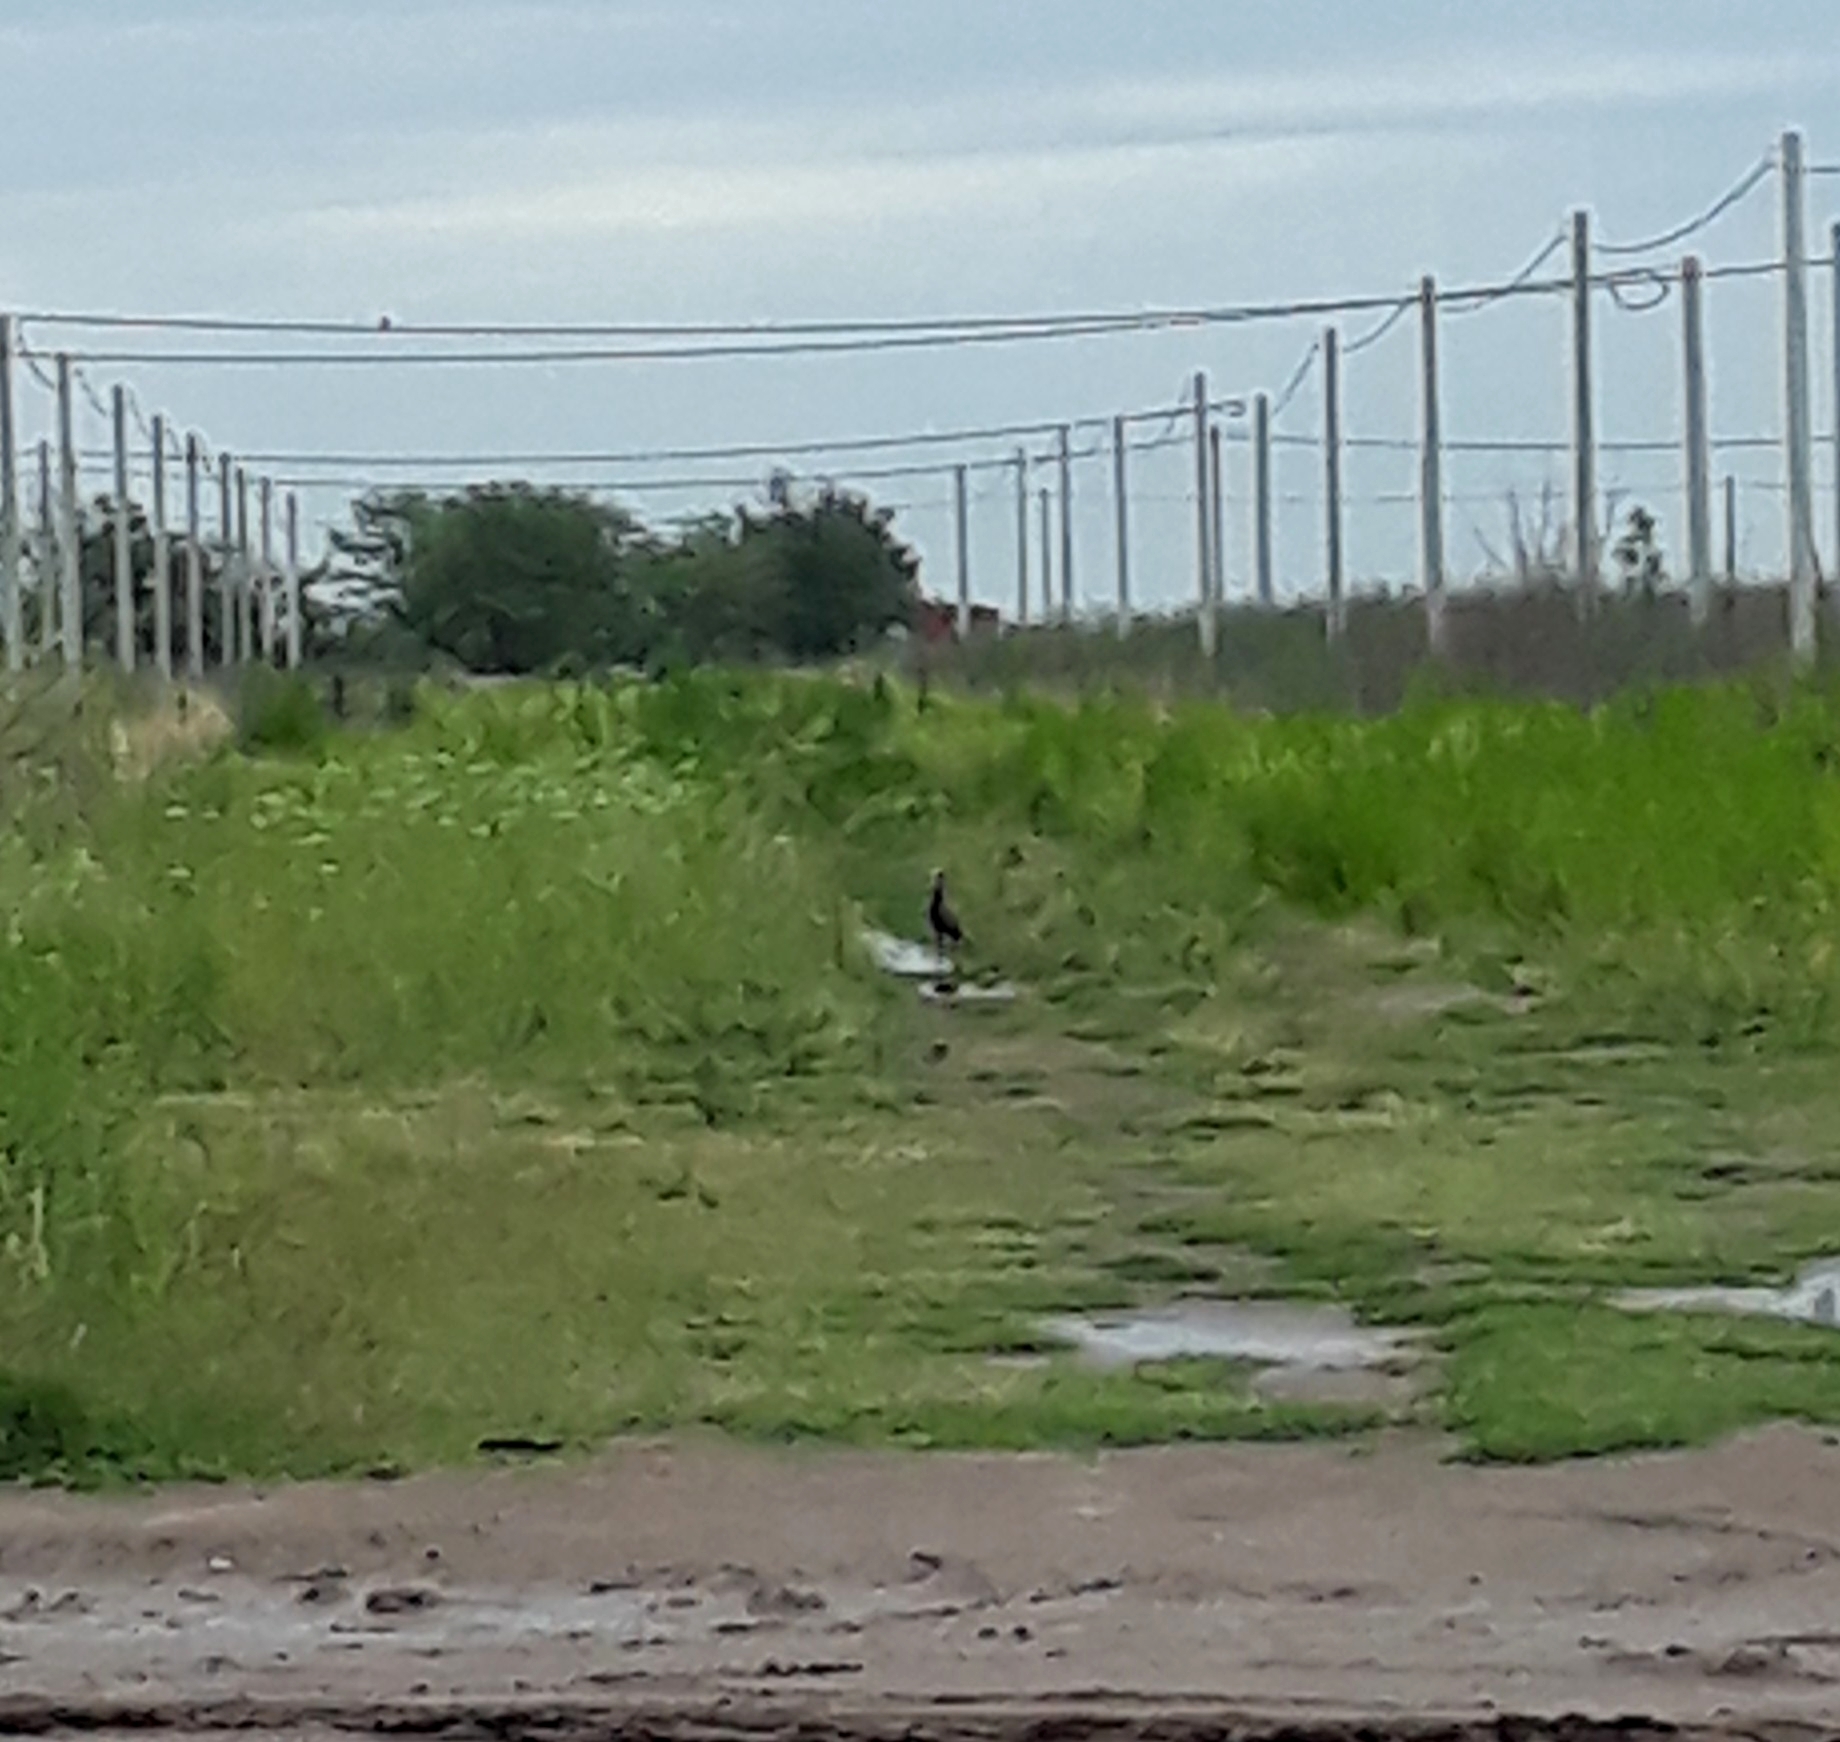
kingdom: Animalia
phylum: Chordata
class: Aves
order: Anseriformes
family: Anatidae
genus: Dendrocygna
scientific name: Dendrocygna viduata
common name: White-faced whistling duck
